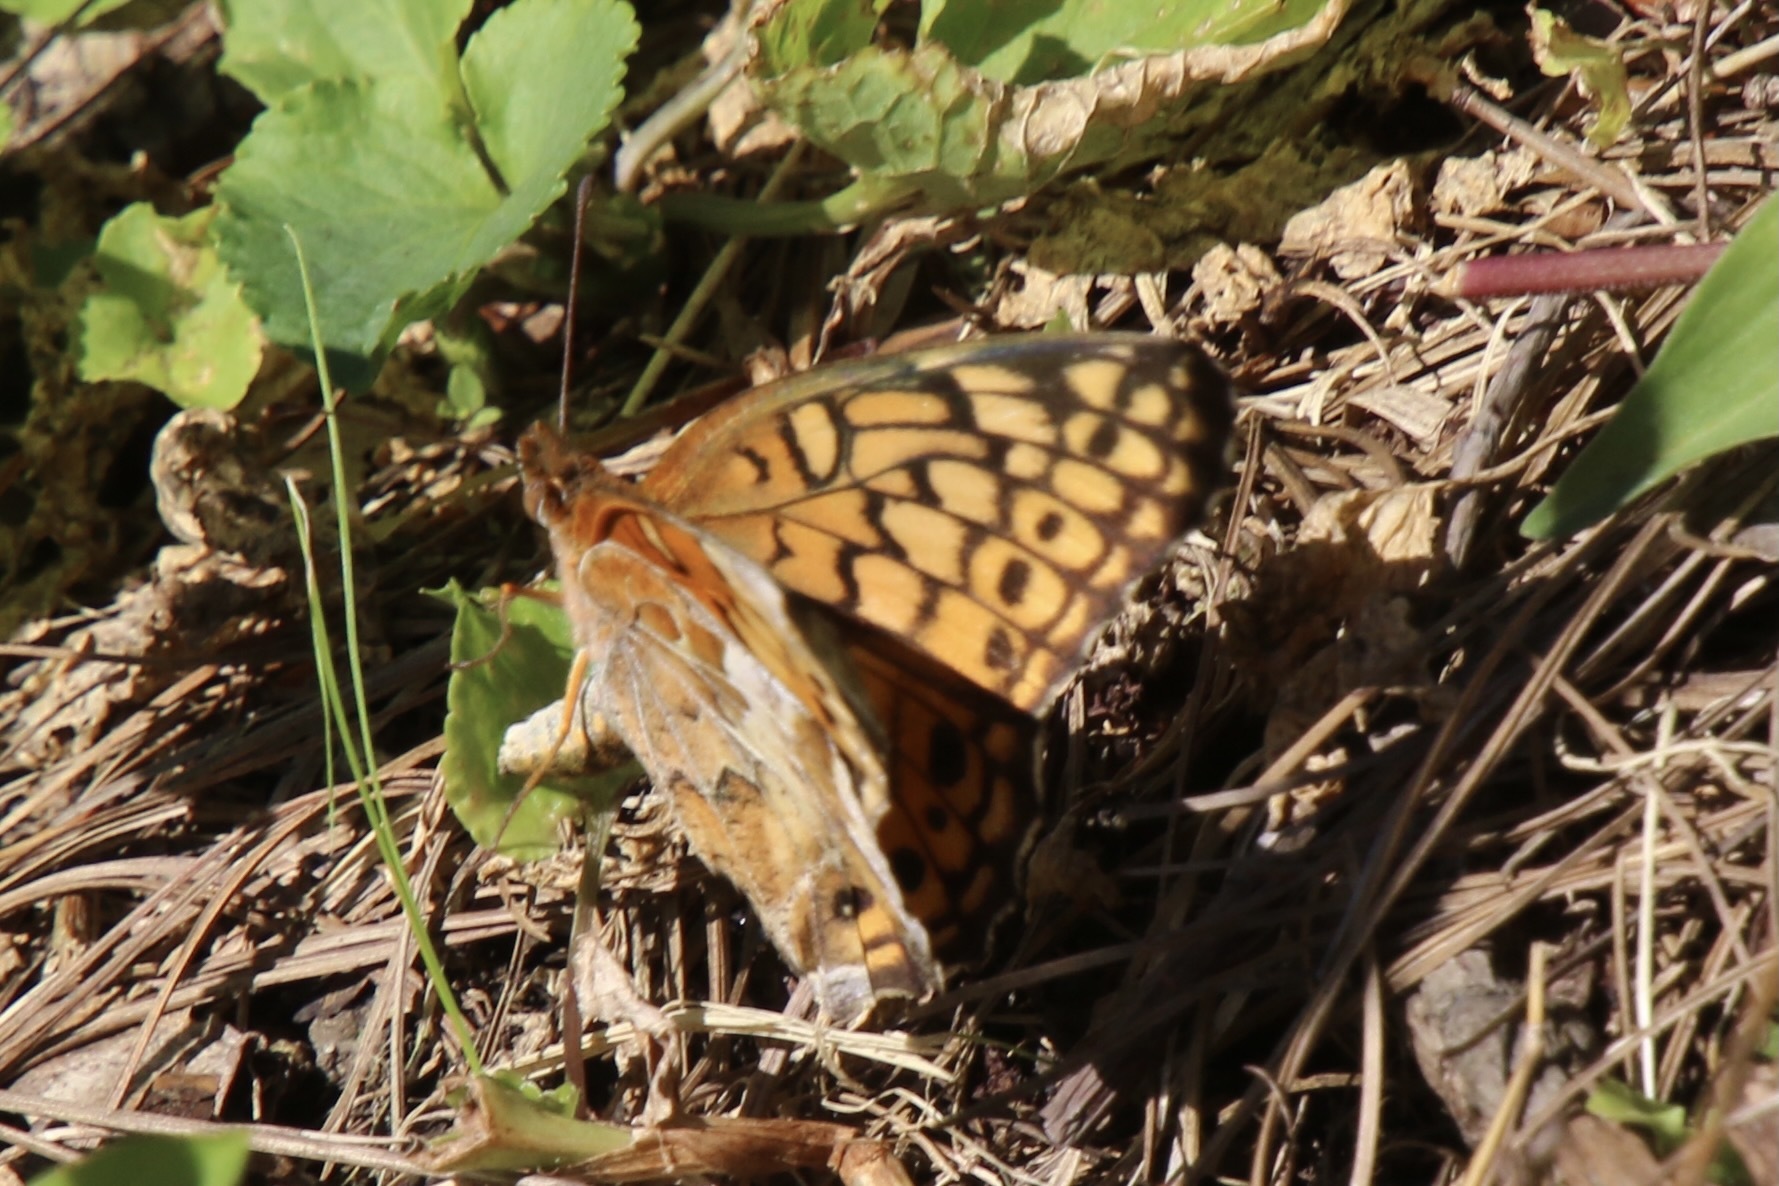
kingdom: Animalia
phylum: Arthropoda
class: Insecta
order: Lepidoptera
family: Nymphalidae
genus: Euptoieta
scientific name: Euptoieta claudia
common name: Variegated fritillary
